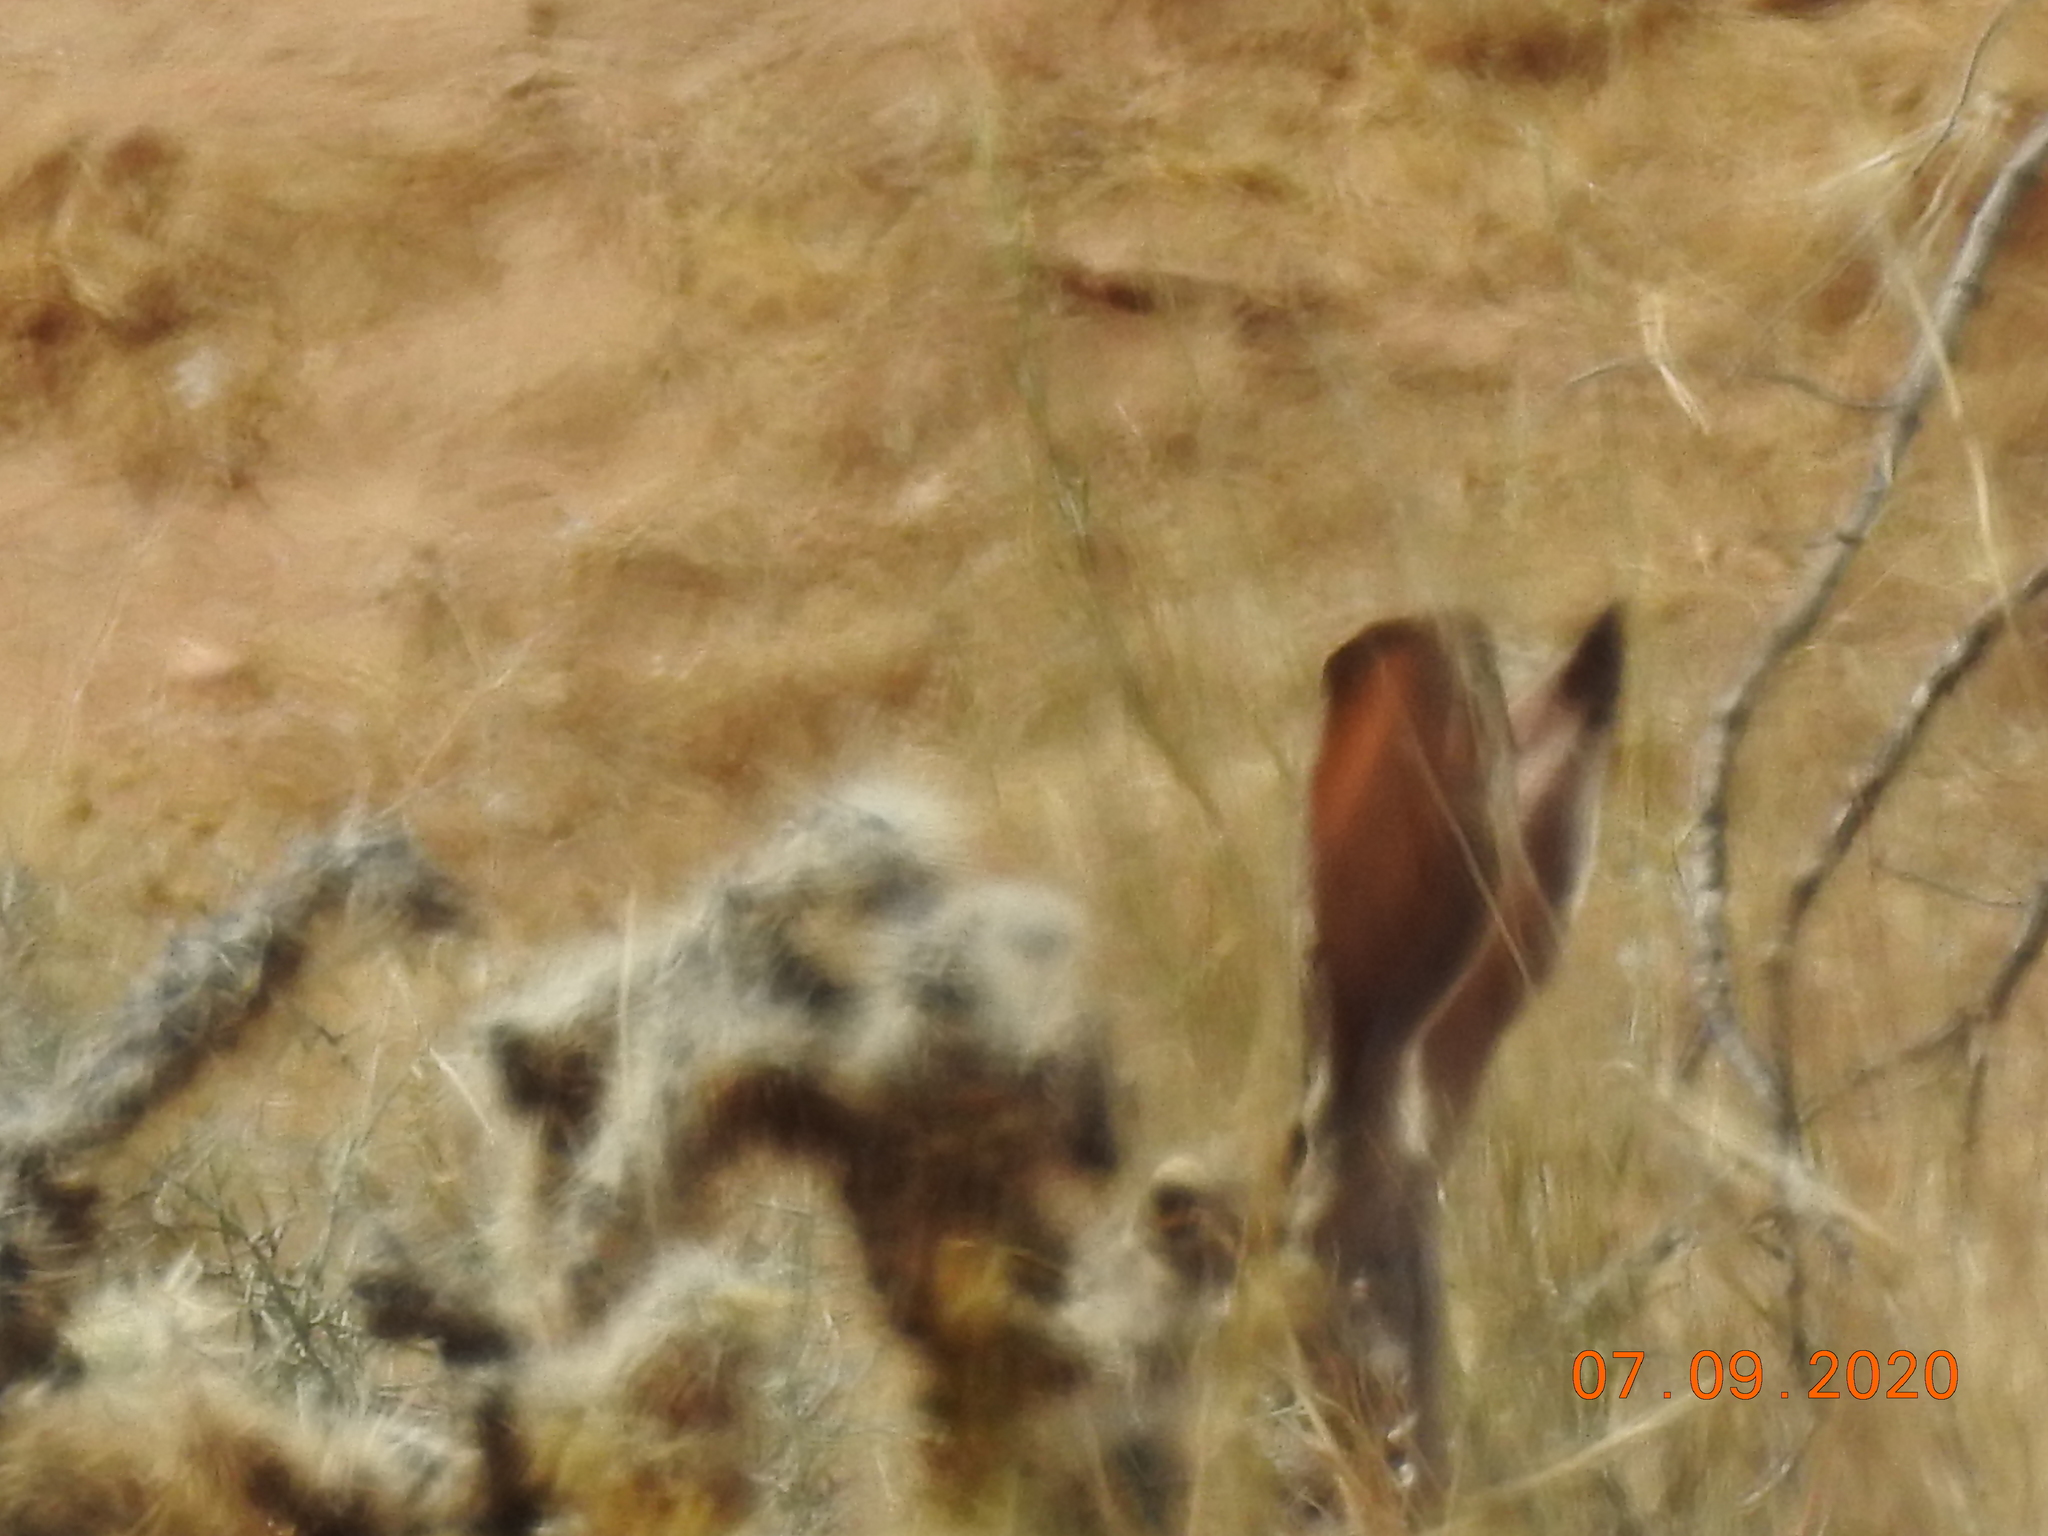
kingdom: Animalia
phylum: Chordata
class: Mammalia
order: Lagomorpha
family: Leporidae
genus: Lepus
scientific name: Lepus californicus
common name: Black-tailed jackrabbit
